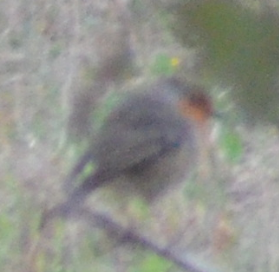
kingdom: Animalia
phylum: Chordata
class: Aves
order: Passeriformes
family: Muscicapidae
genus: Erithacus
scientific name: Erithacus rubecula
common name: European robin
